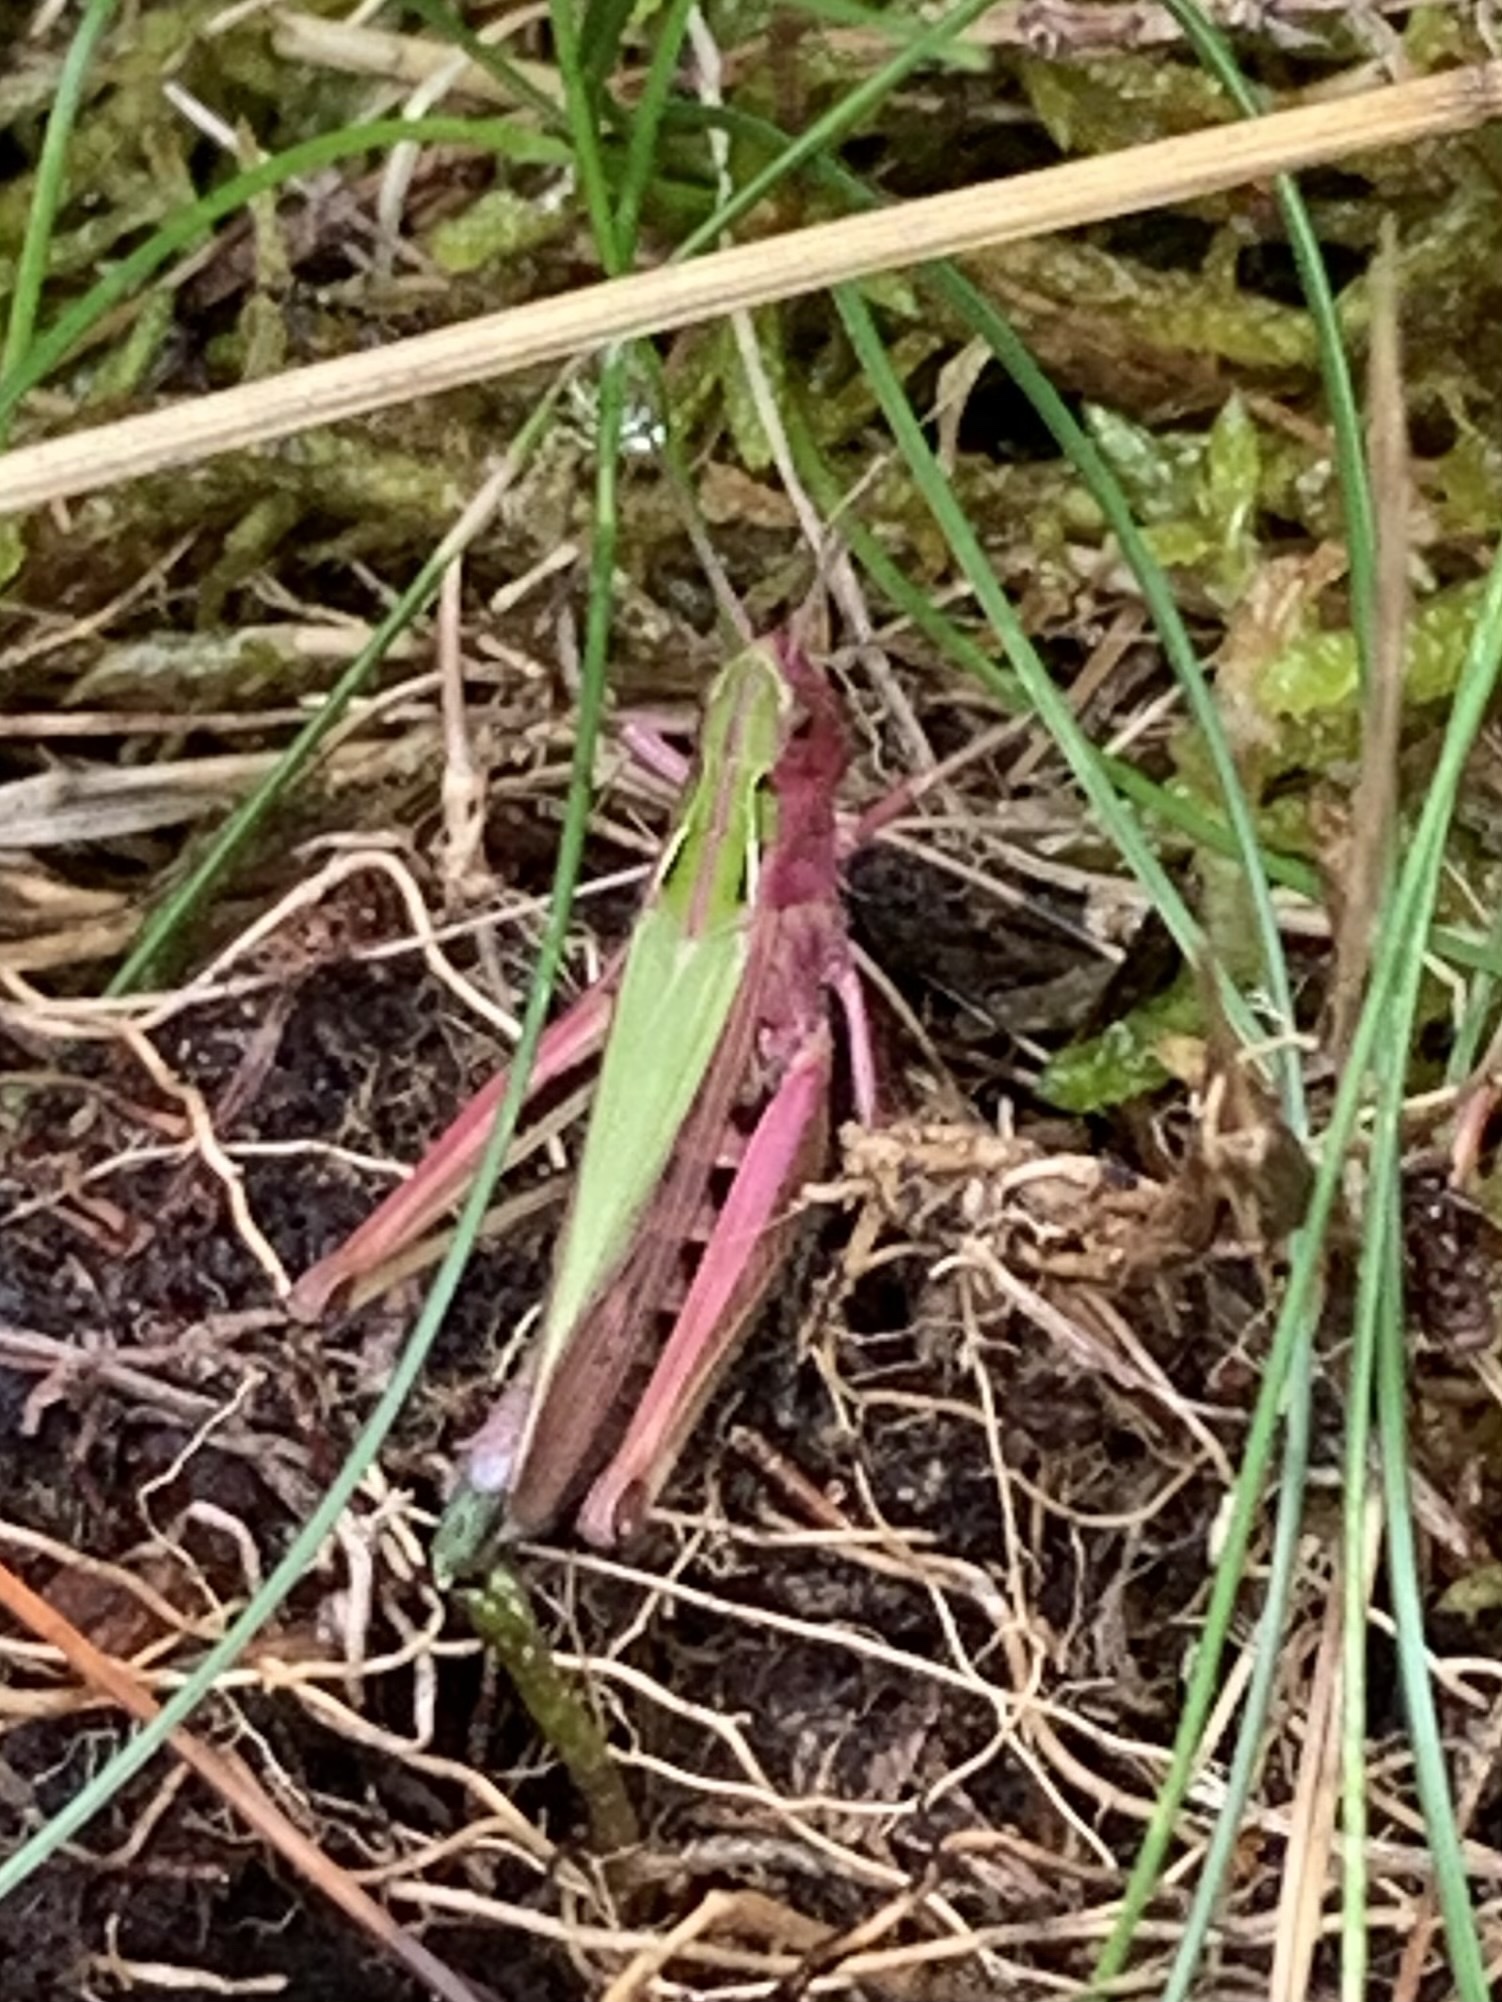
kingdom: Animalia
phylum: Arthropoda
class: Insecta
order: Orthoptera
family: Acrididae
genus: Omocestus
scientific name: Omocestus viridulus
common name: Common green grasshopper
